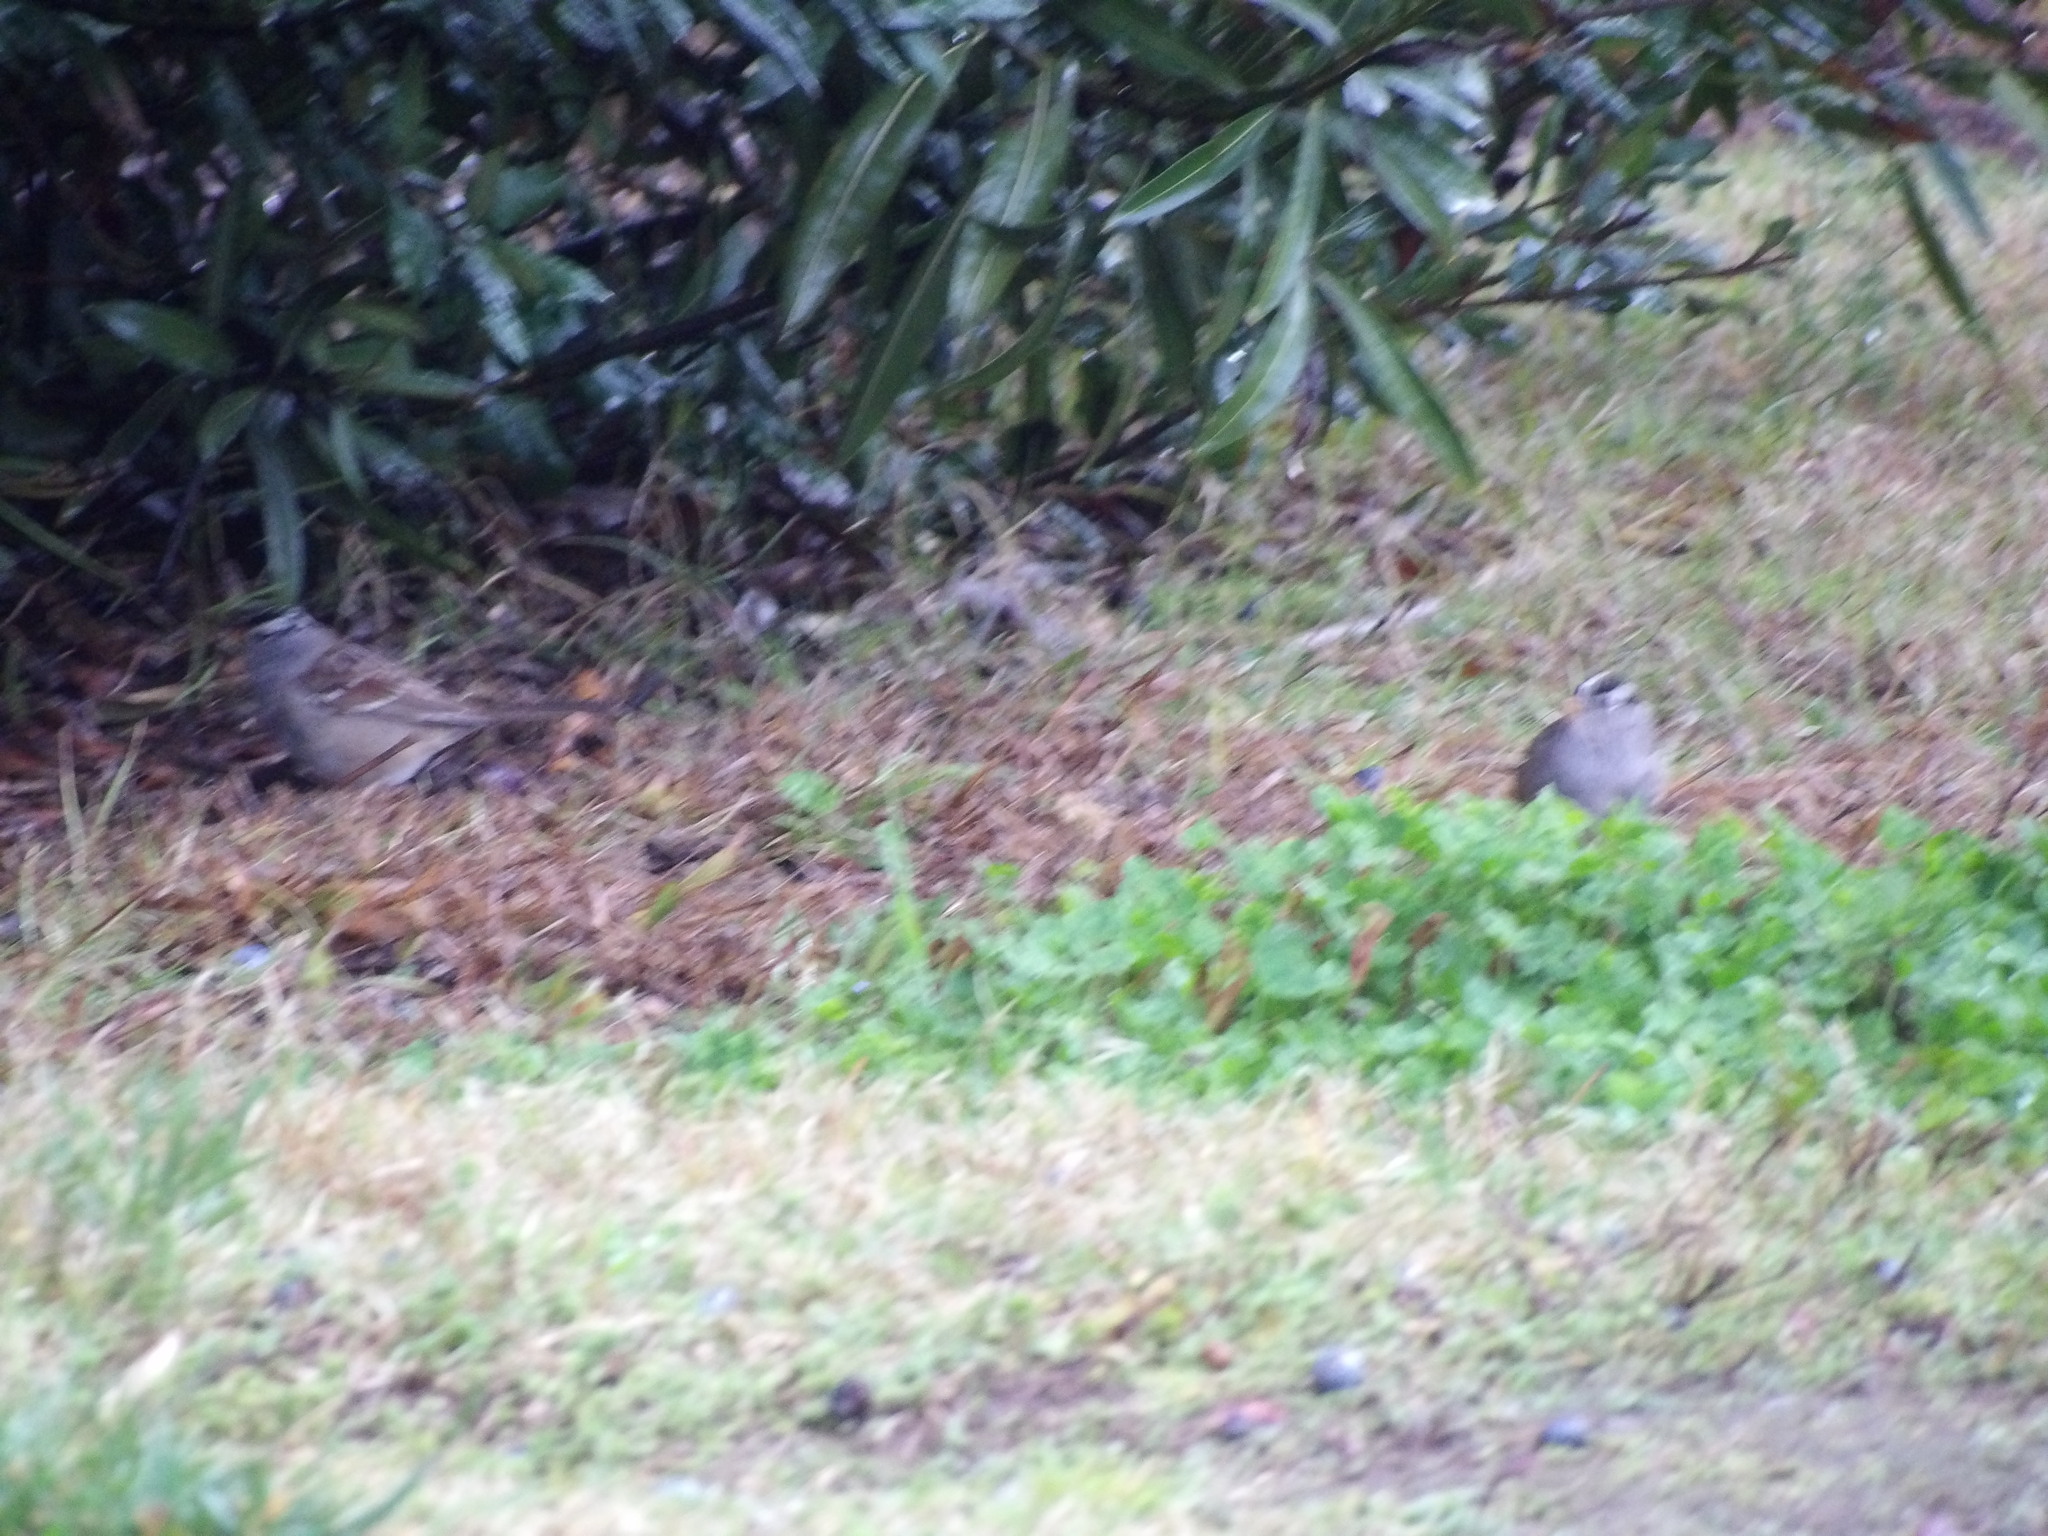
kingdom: Animalia
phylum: Chordata
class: Aves
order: Passeriformes
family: Passerellidae
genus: Zonotrichia
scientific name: Zonotrichia leucophrys
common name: White-crowned sparrow
